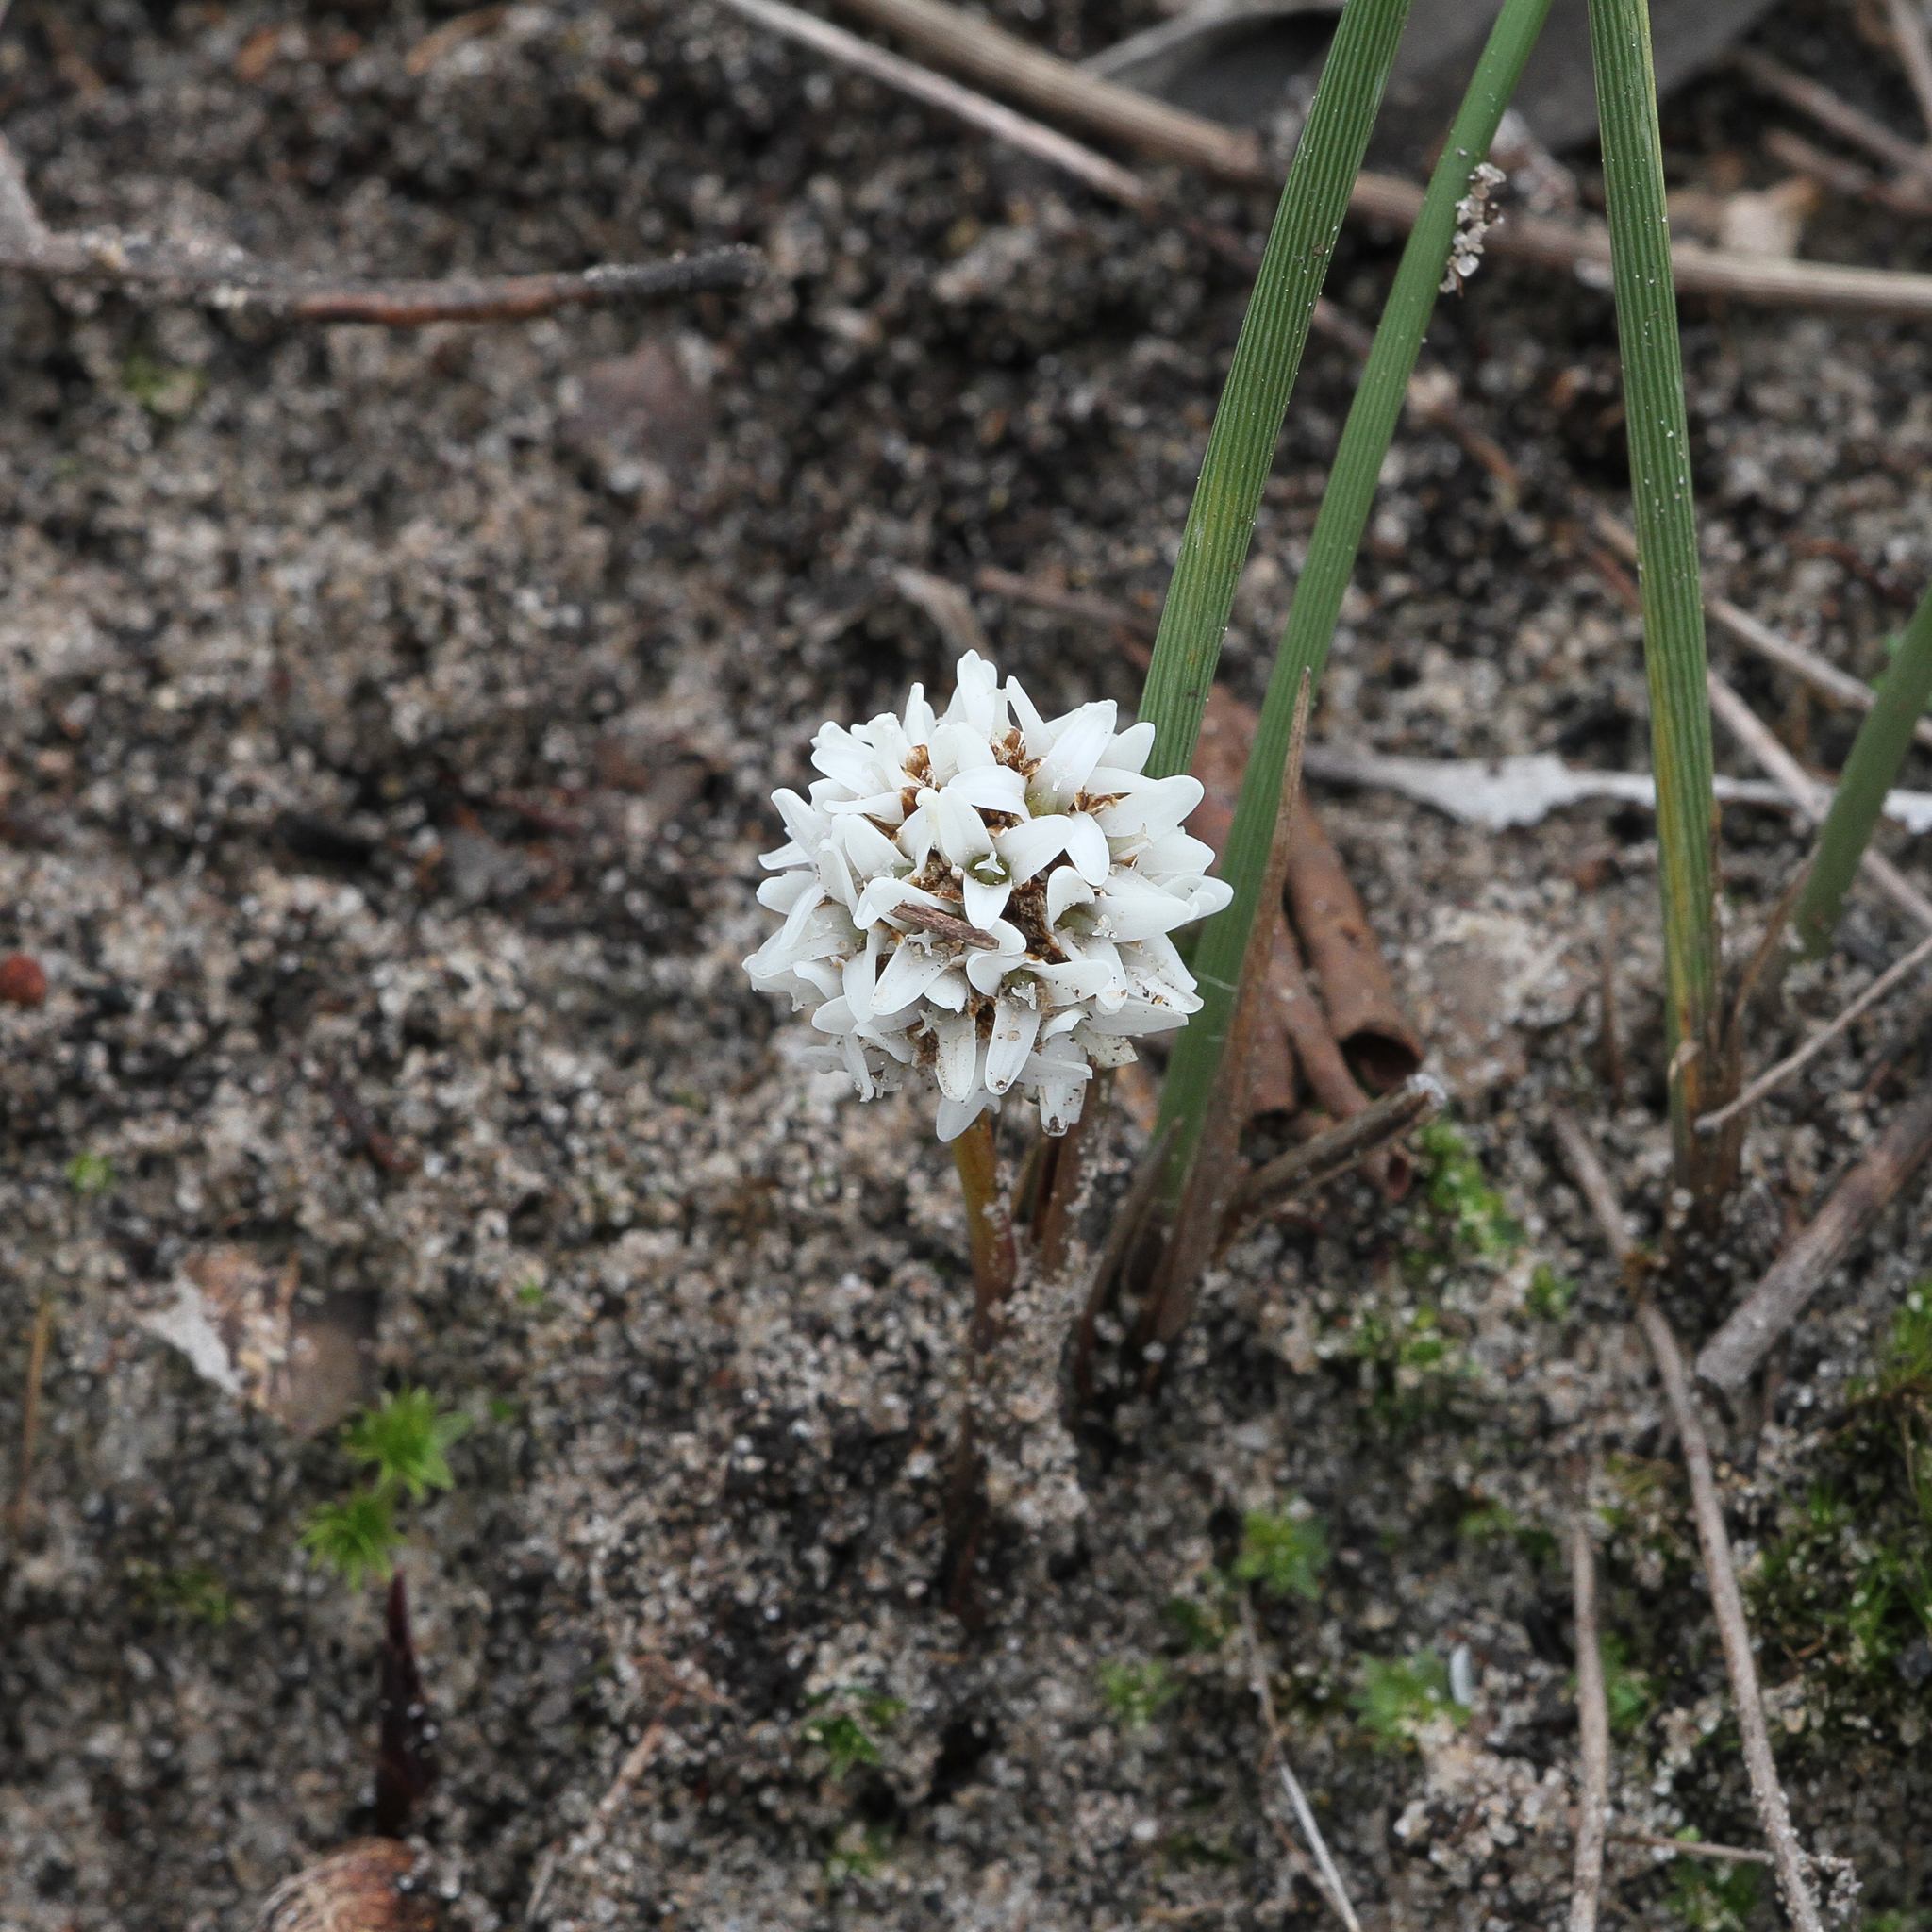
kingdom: Plantae
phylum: Tracheophyta
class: Liliopsida
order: Asparagales
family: Asparagaceae
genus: Lomandra
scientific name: Lomandra juncea
